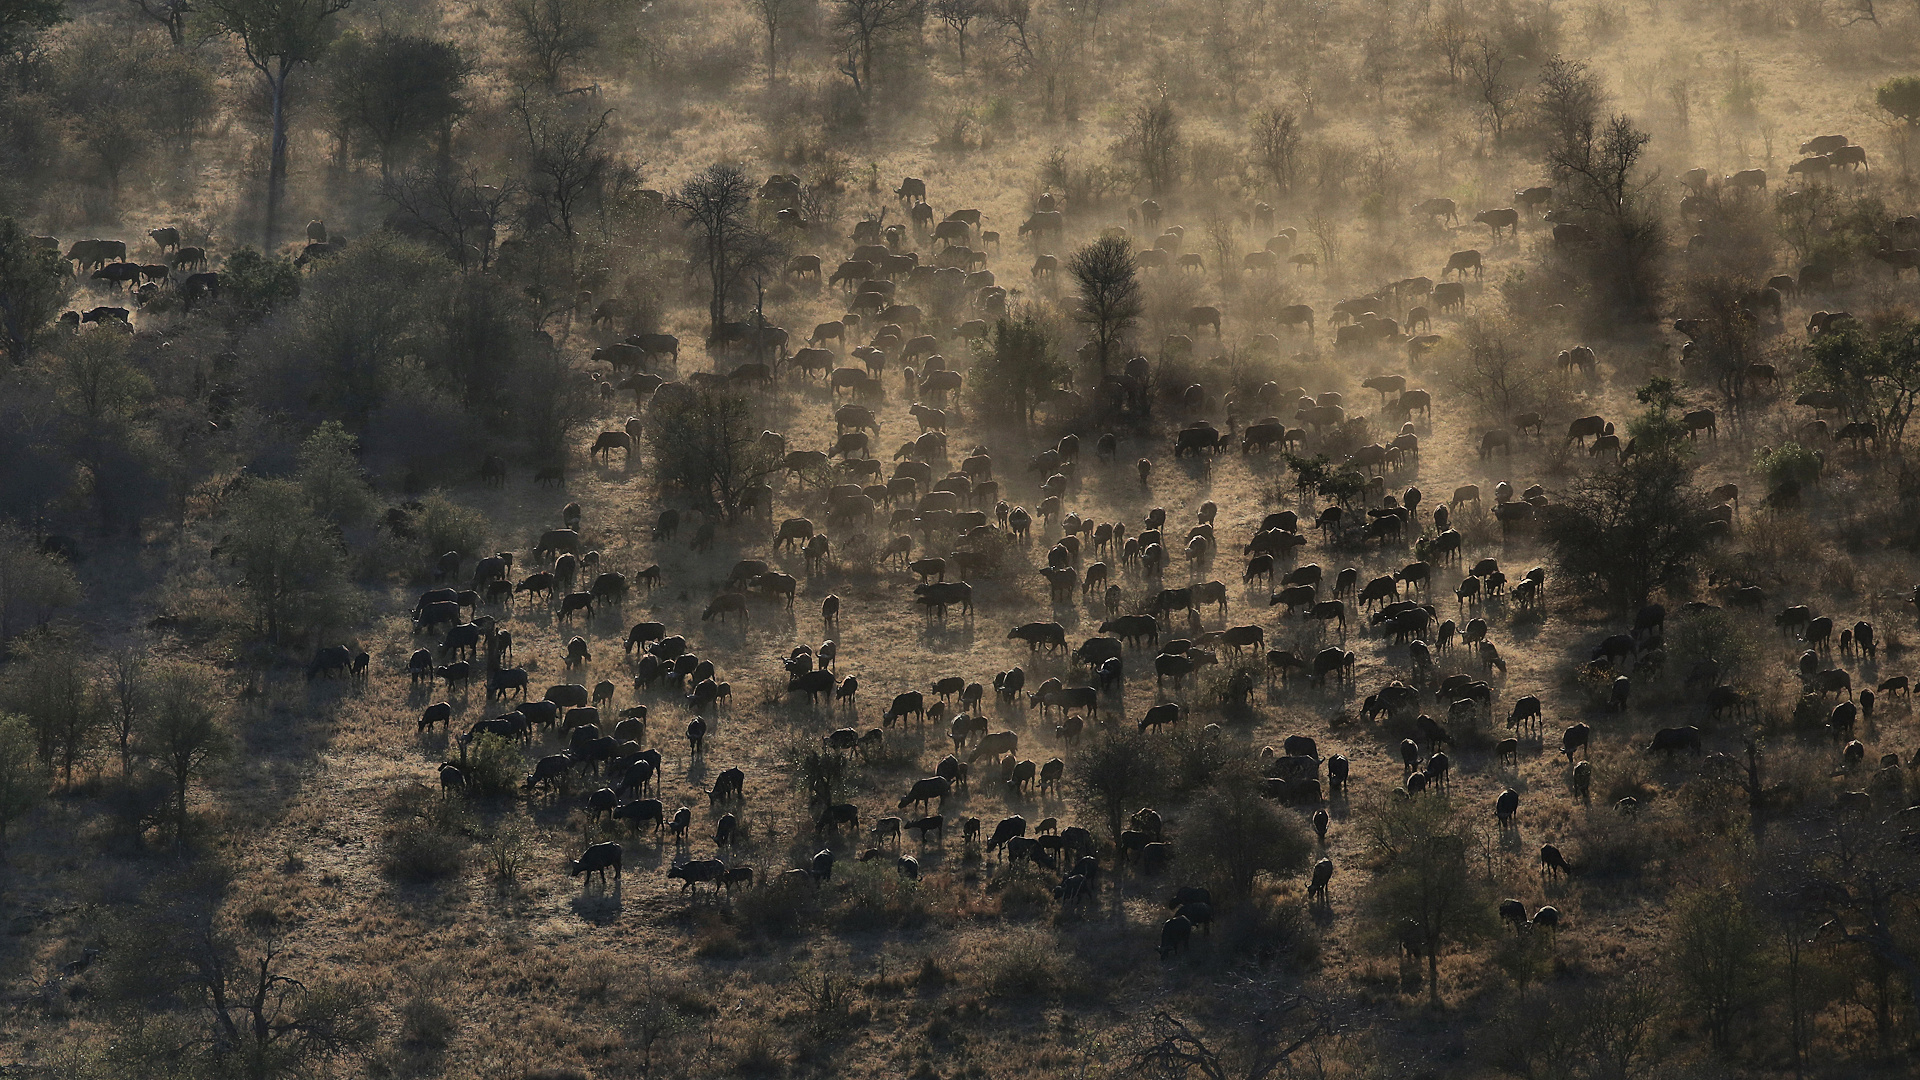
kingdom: Animalia
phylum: Chordata
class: Mammalia
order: Artiodactyla
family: Bovidae
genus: Syncerus
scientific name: Syncerus caffer
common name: African buffalo
